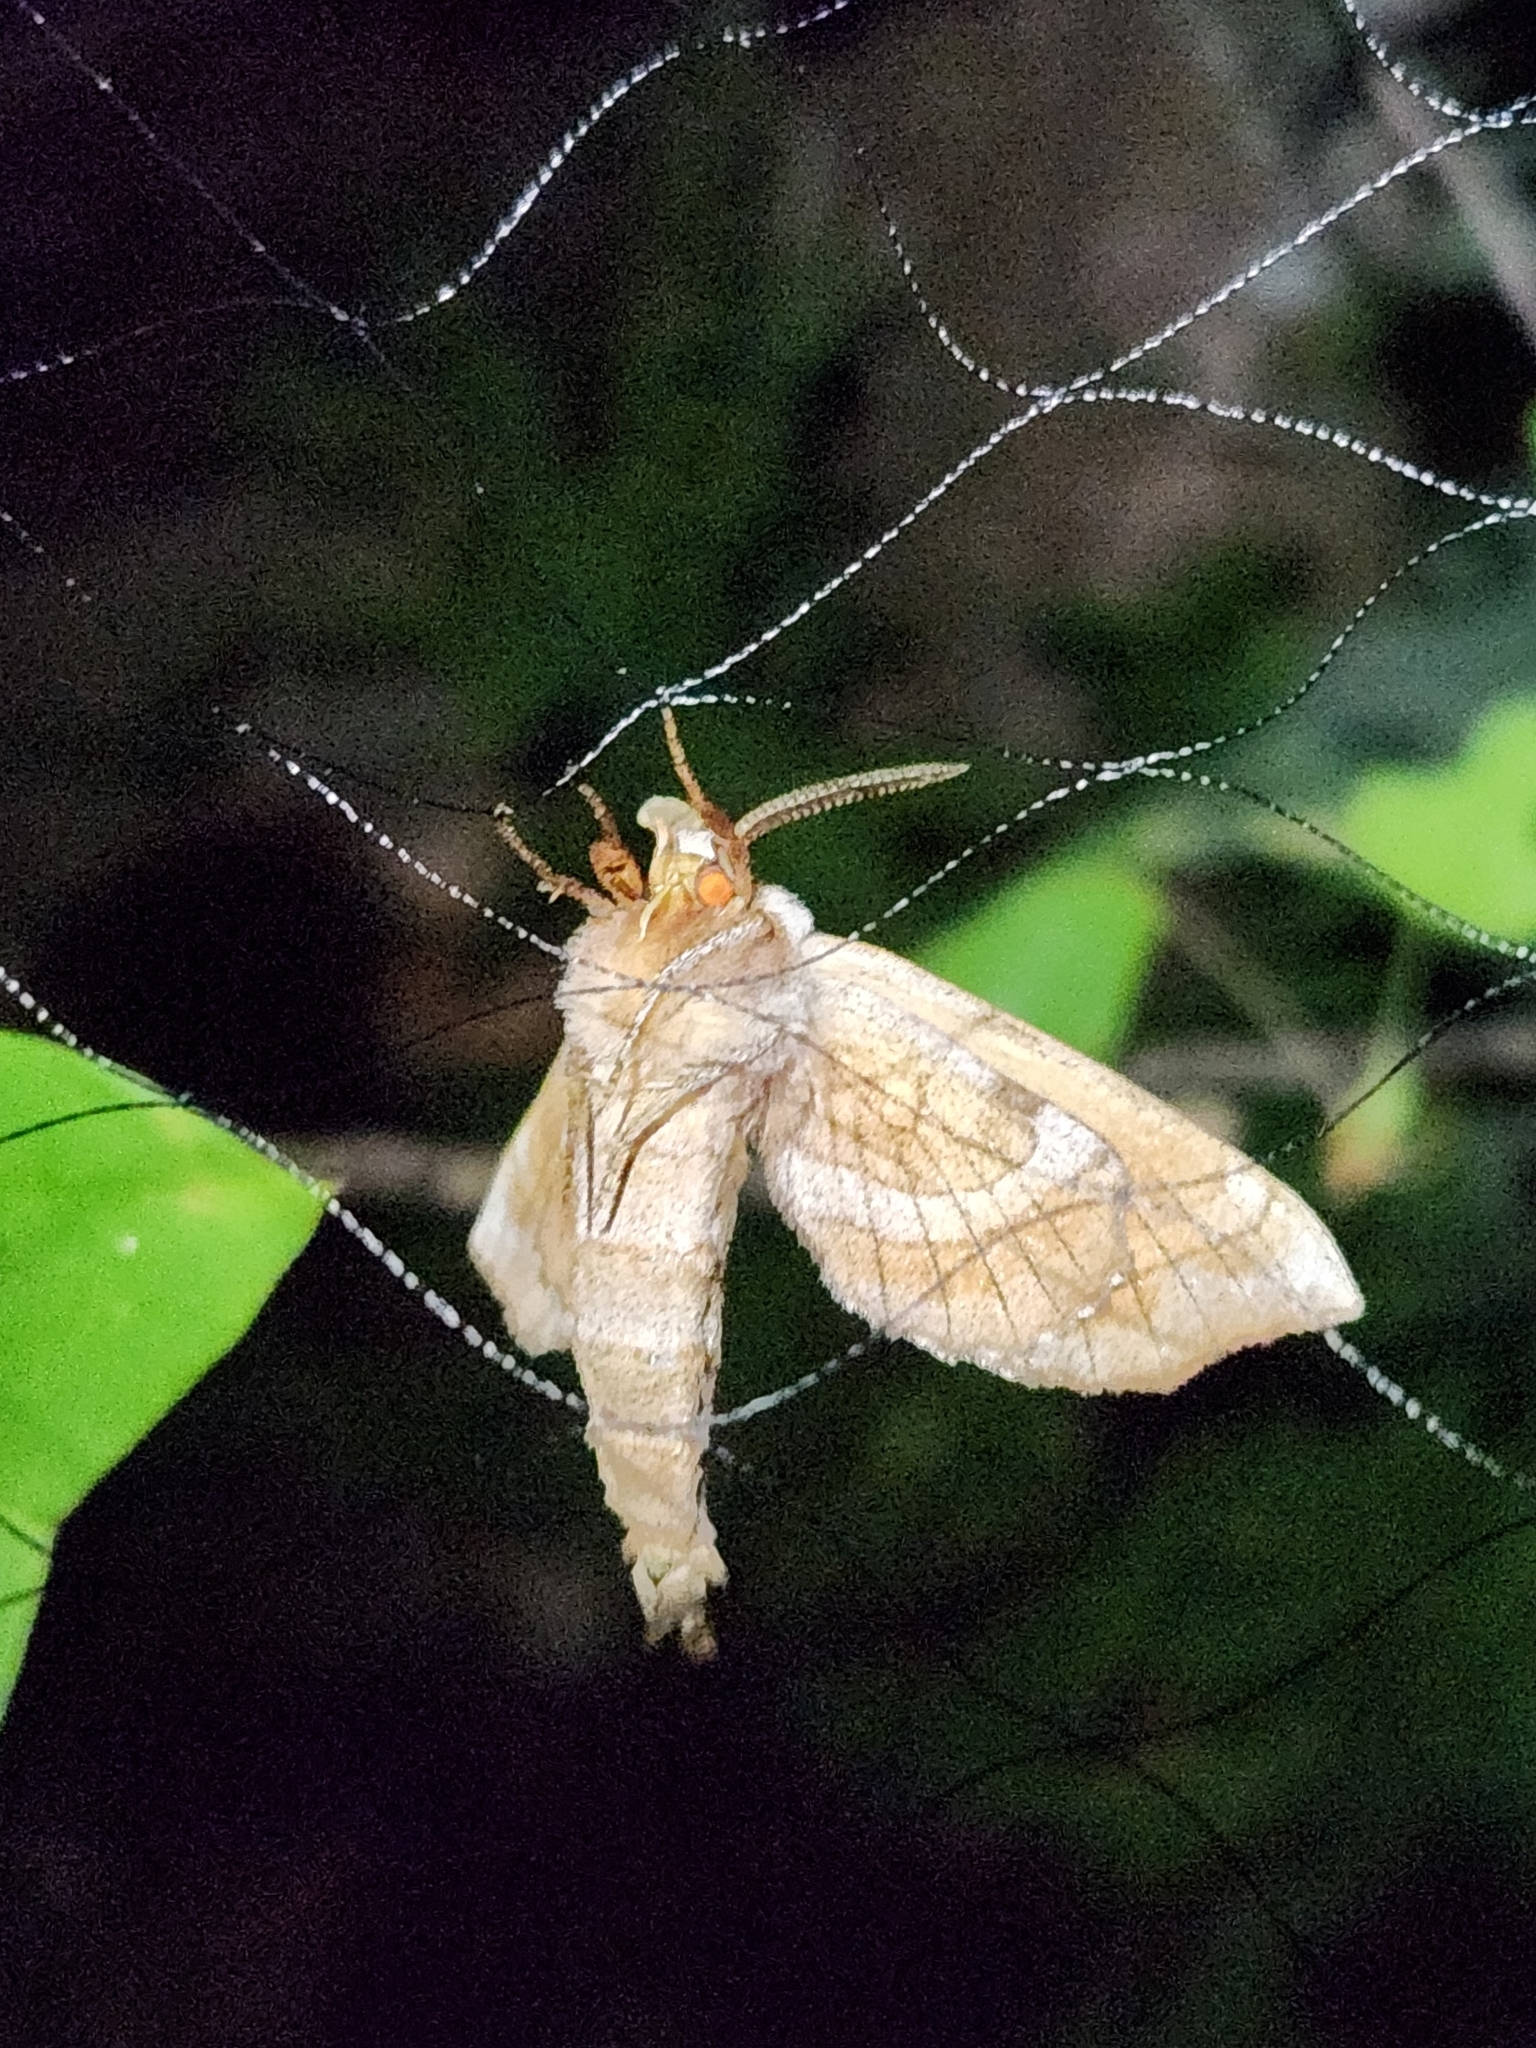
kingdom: Animalia
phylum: Arthropoda
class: Insecta
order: Lepidoptera
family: Sphingidae
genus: Amorpha
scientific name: Amorpha juglandis
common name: Walnut sphinx
